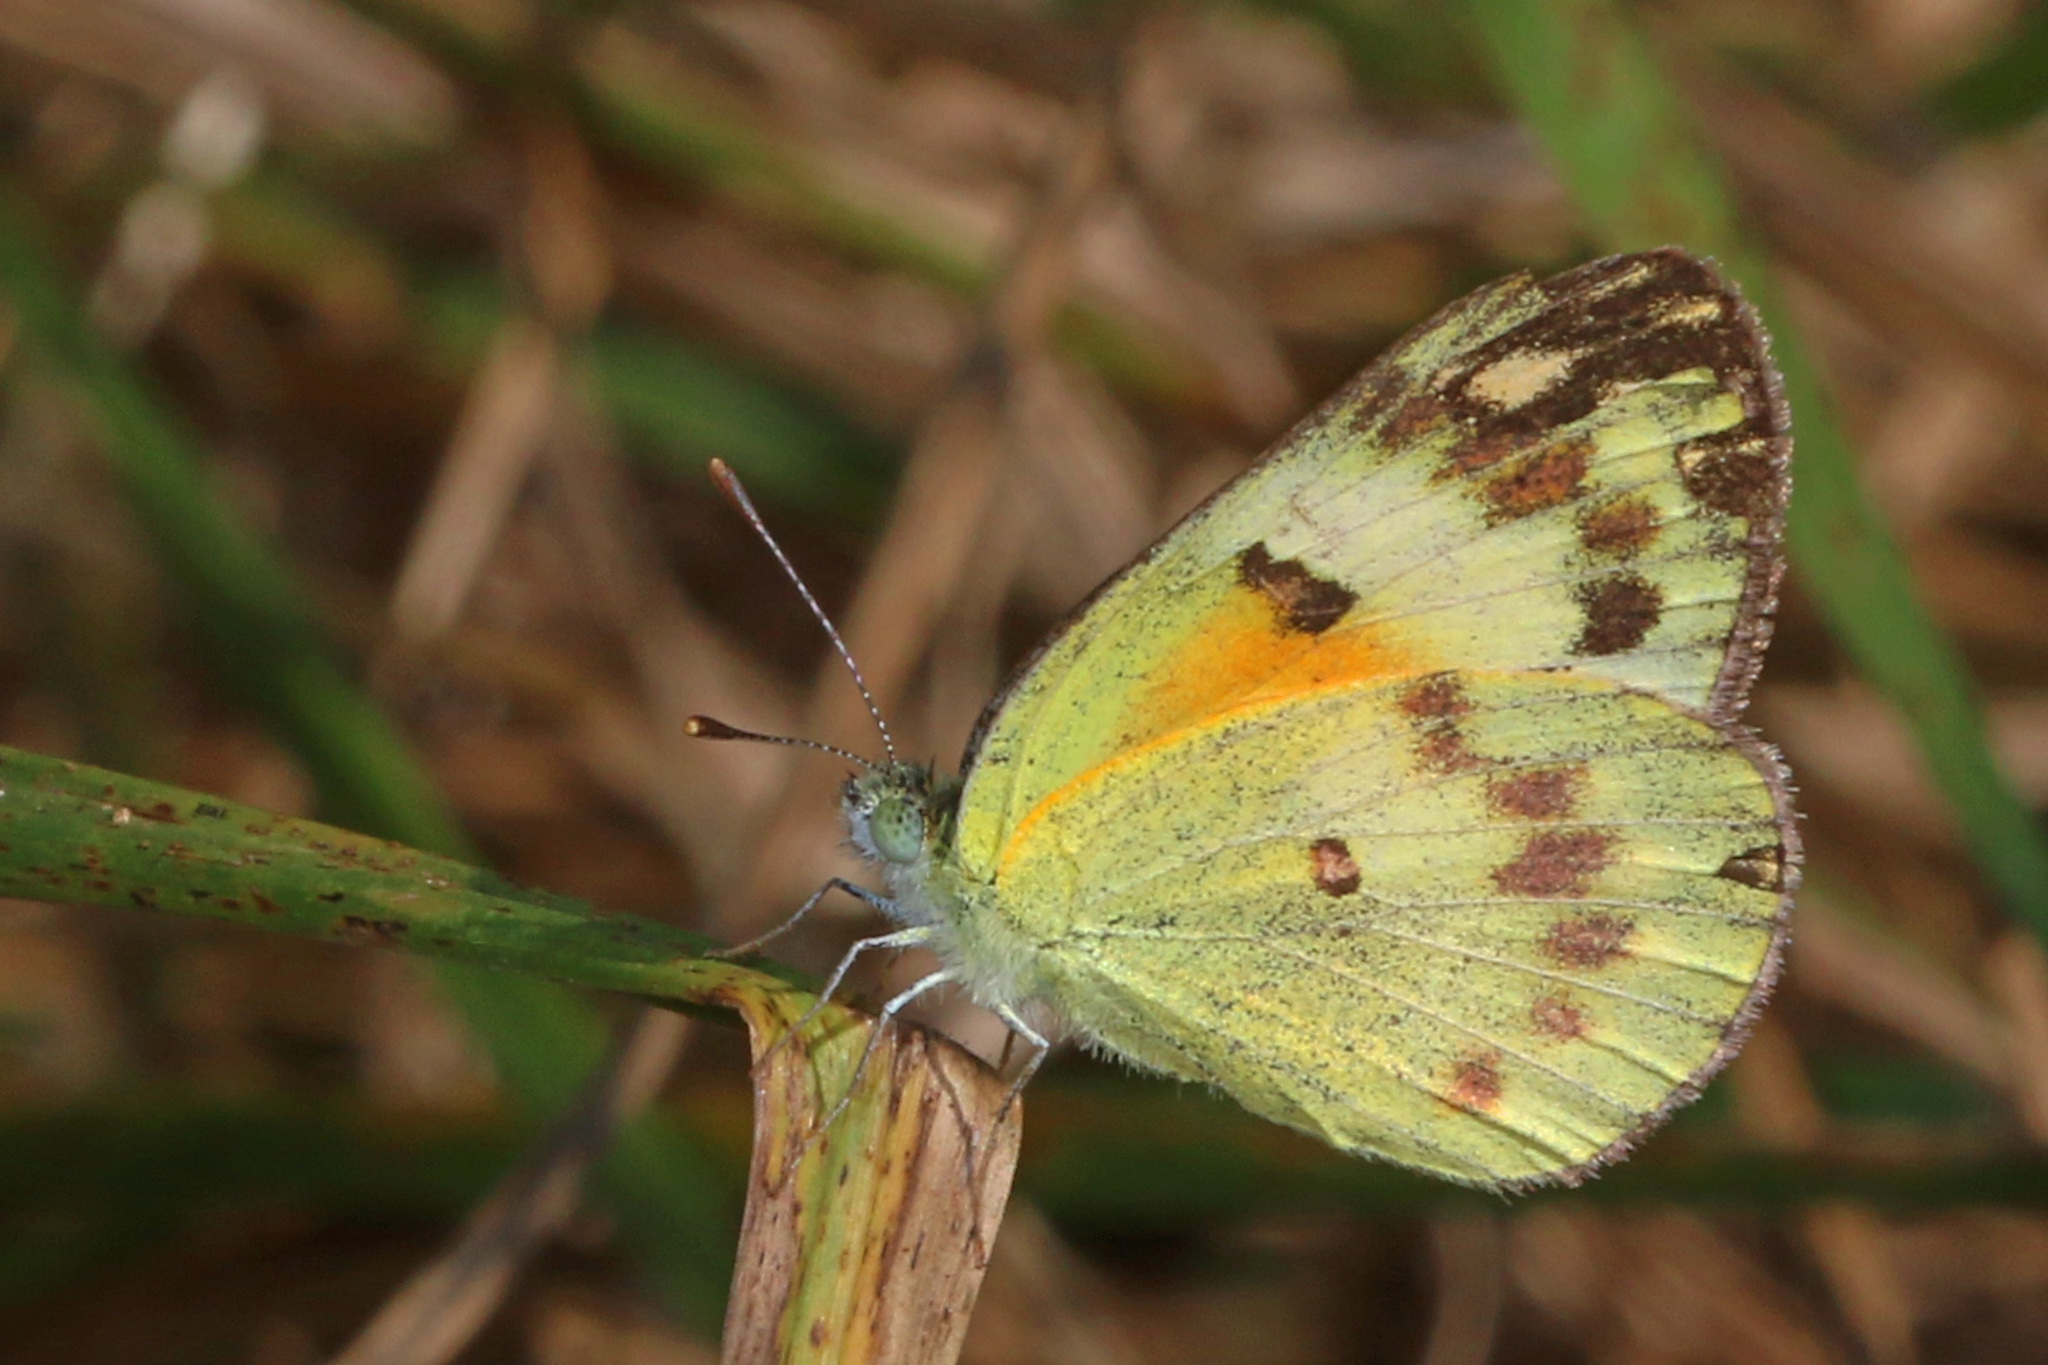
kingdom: Animalia
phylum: Arthropoda
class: Insecta
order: Lepidoptera
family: Pieridae
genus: Colotis
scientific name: Colotis amata
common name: Small salmon arab
